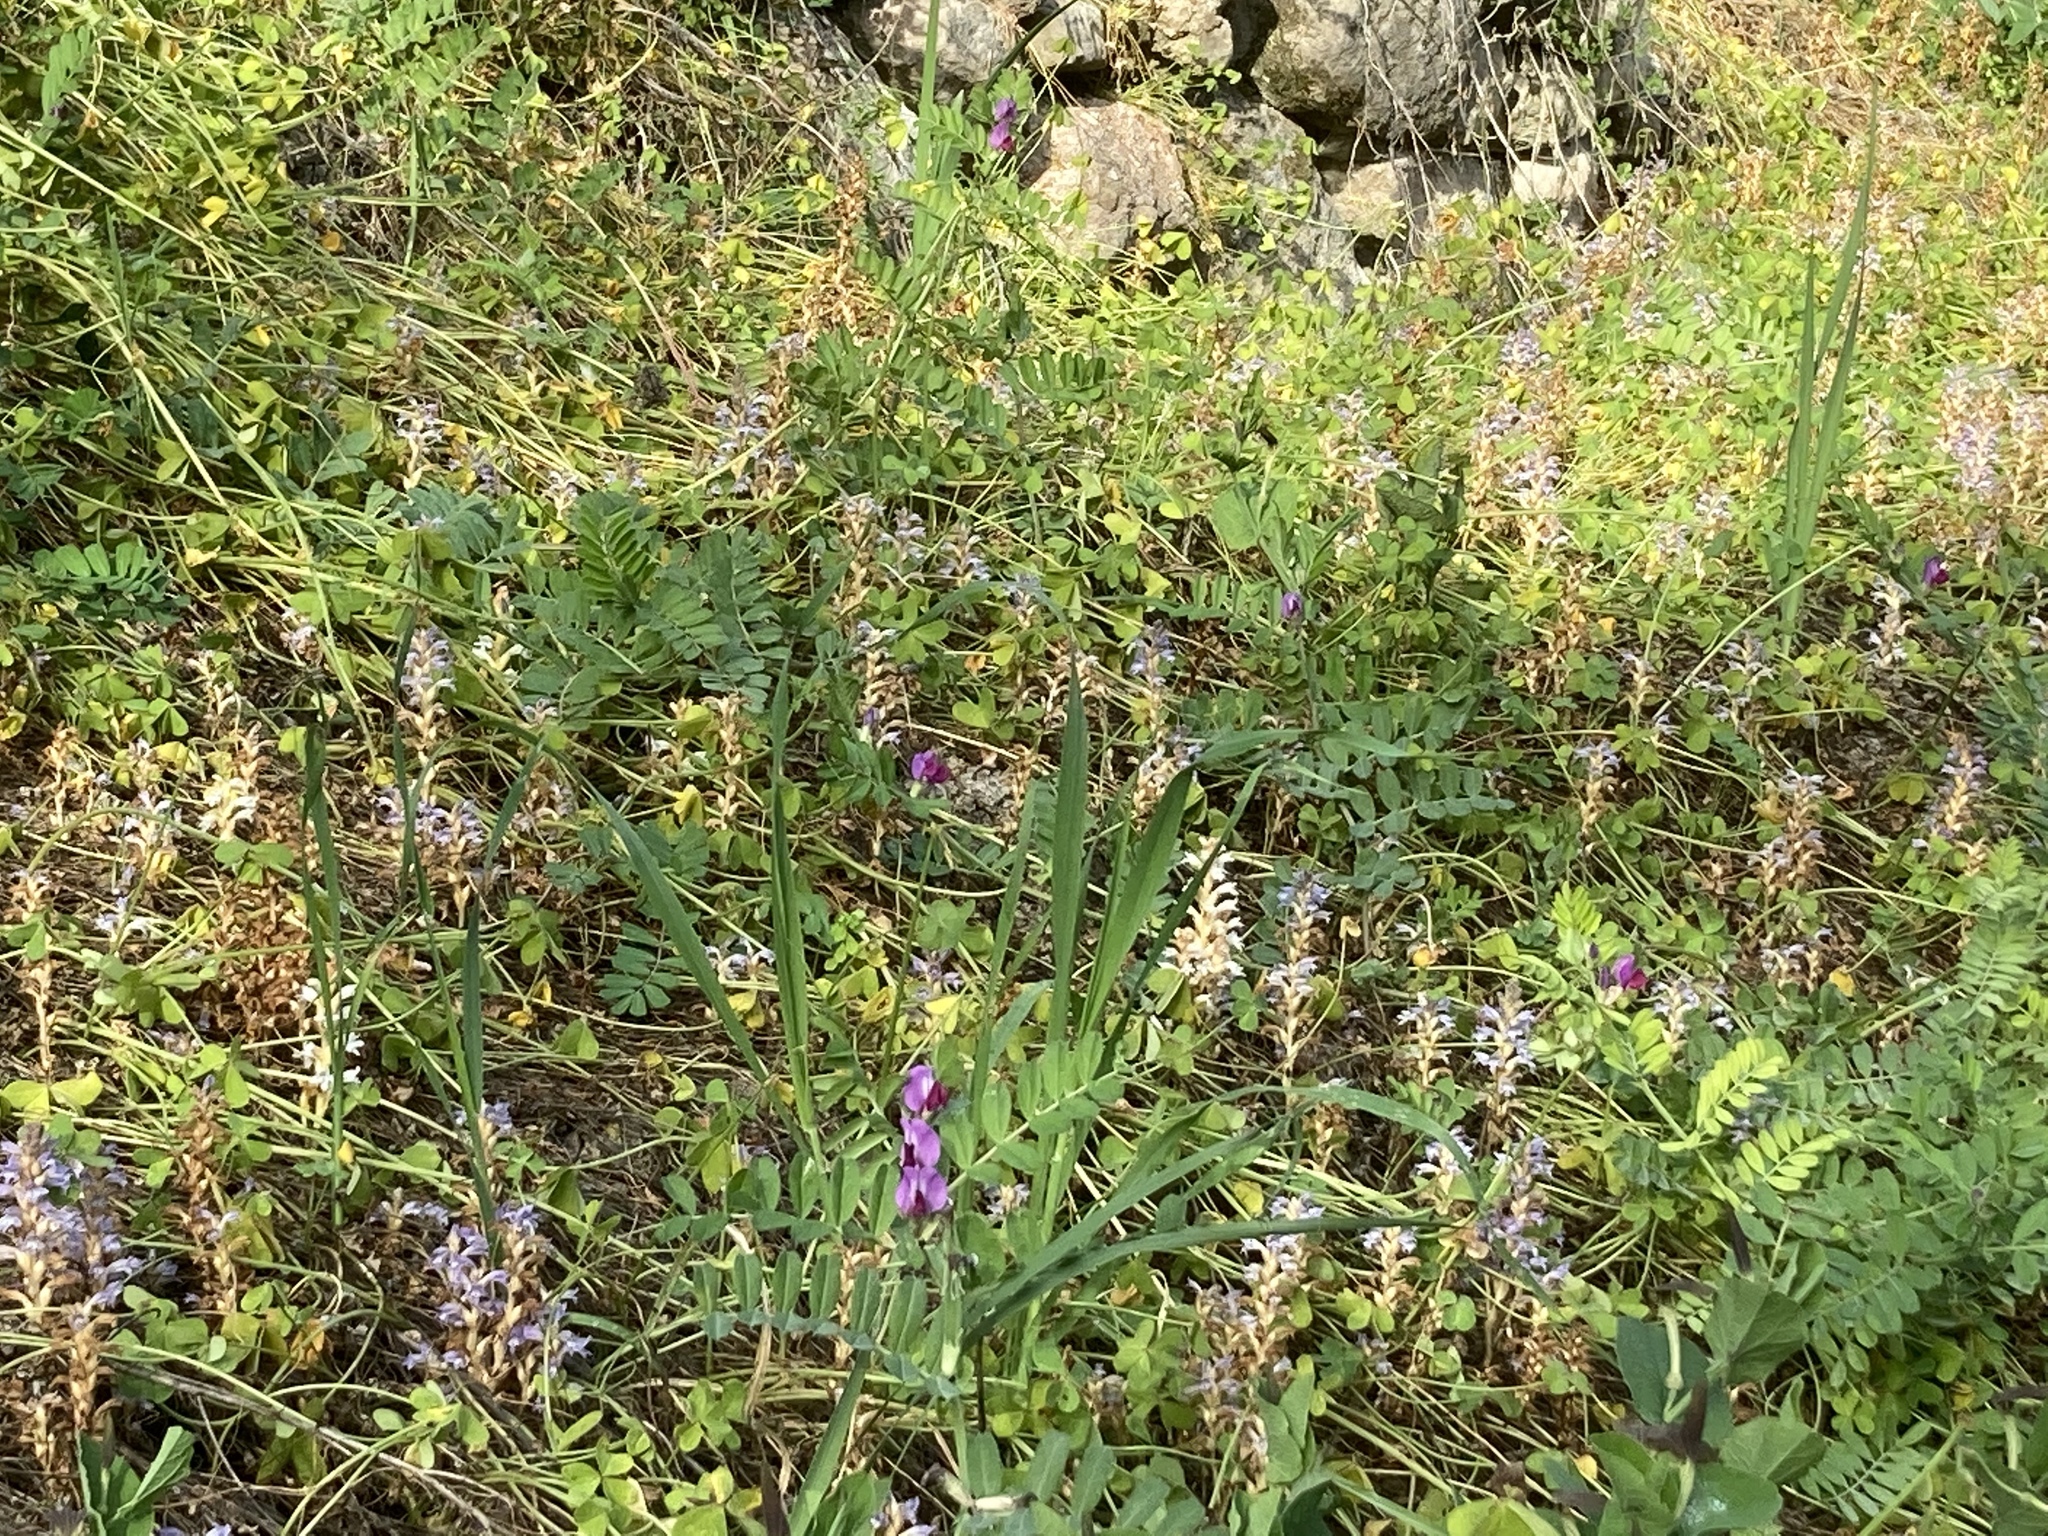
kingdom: Plantae
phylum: Tracheophyta
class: Magnoliopsida
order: Fabales
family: Fabaceae
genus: Vicia
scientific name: Vicia sativa
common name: Garden vetch
